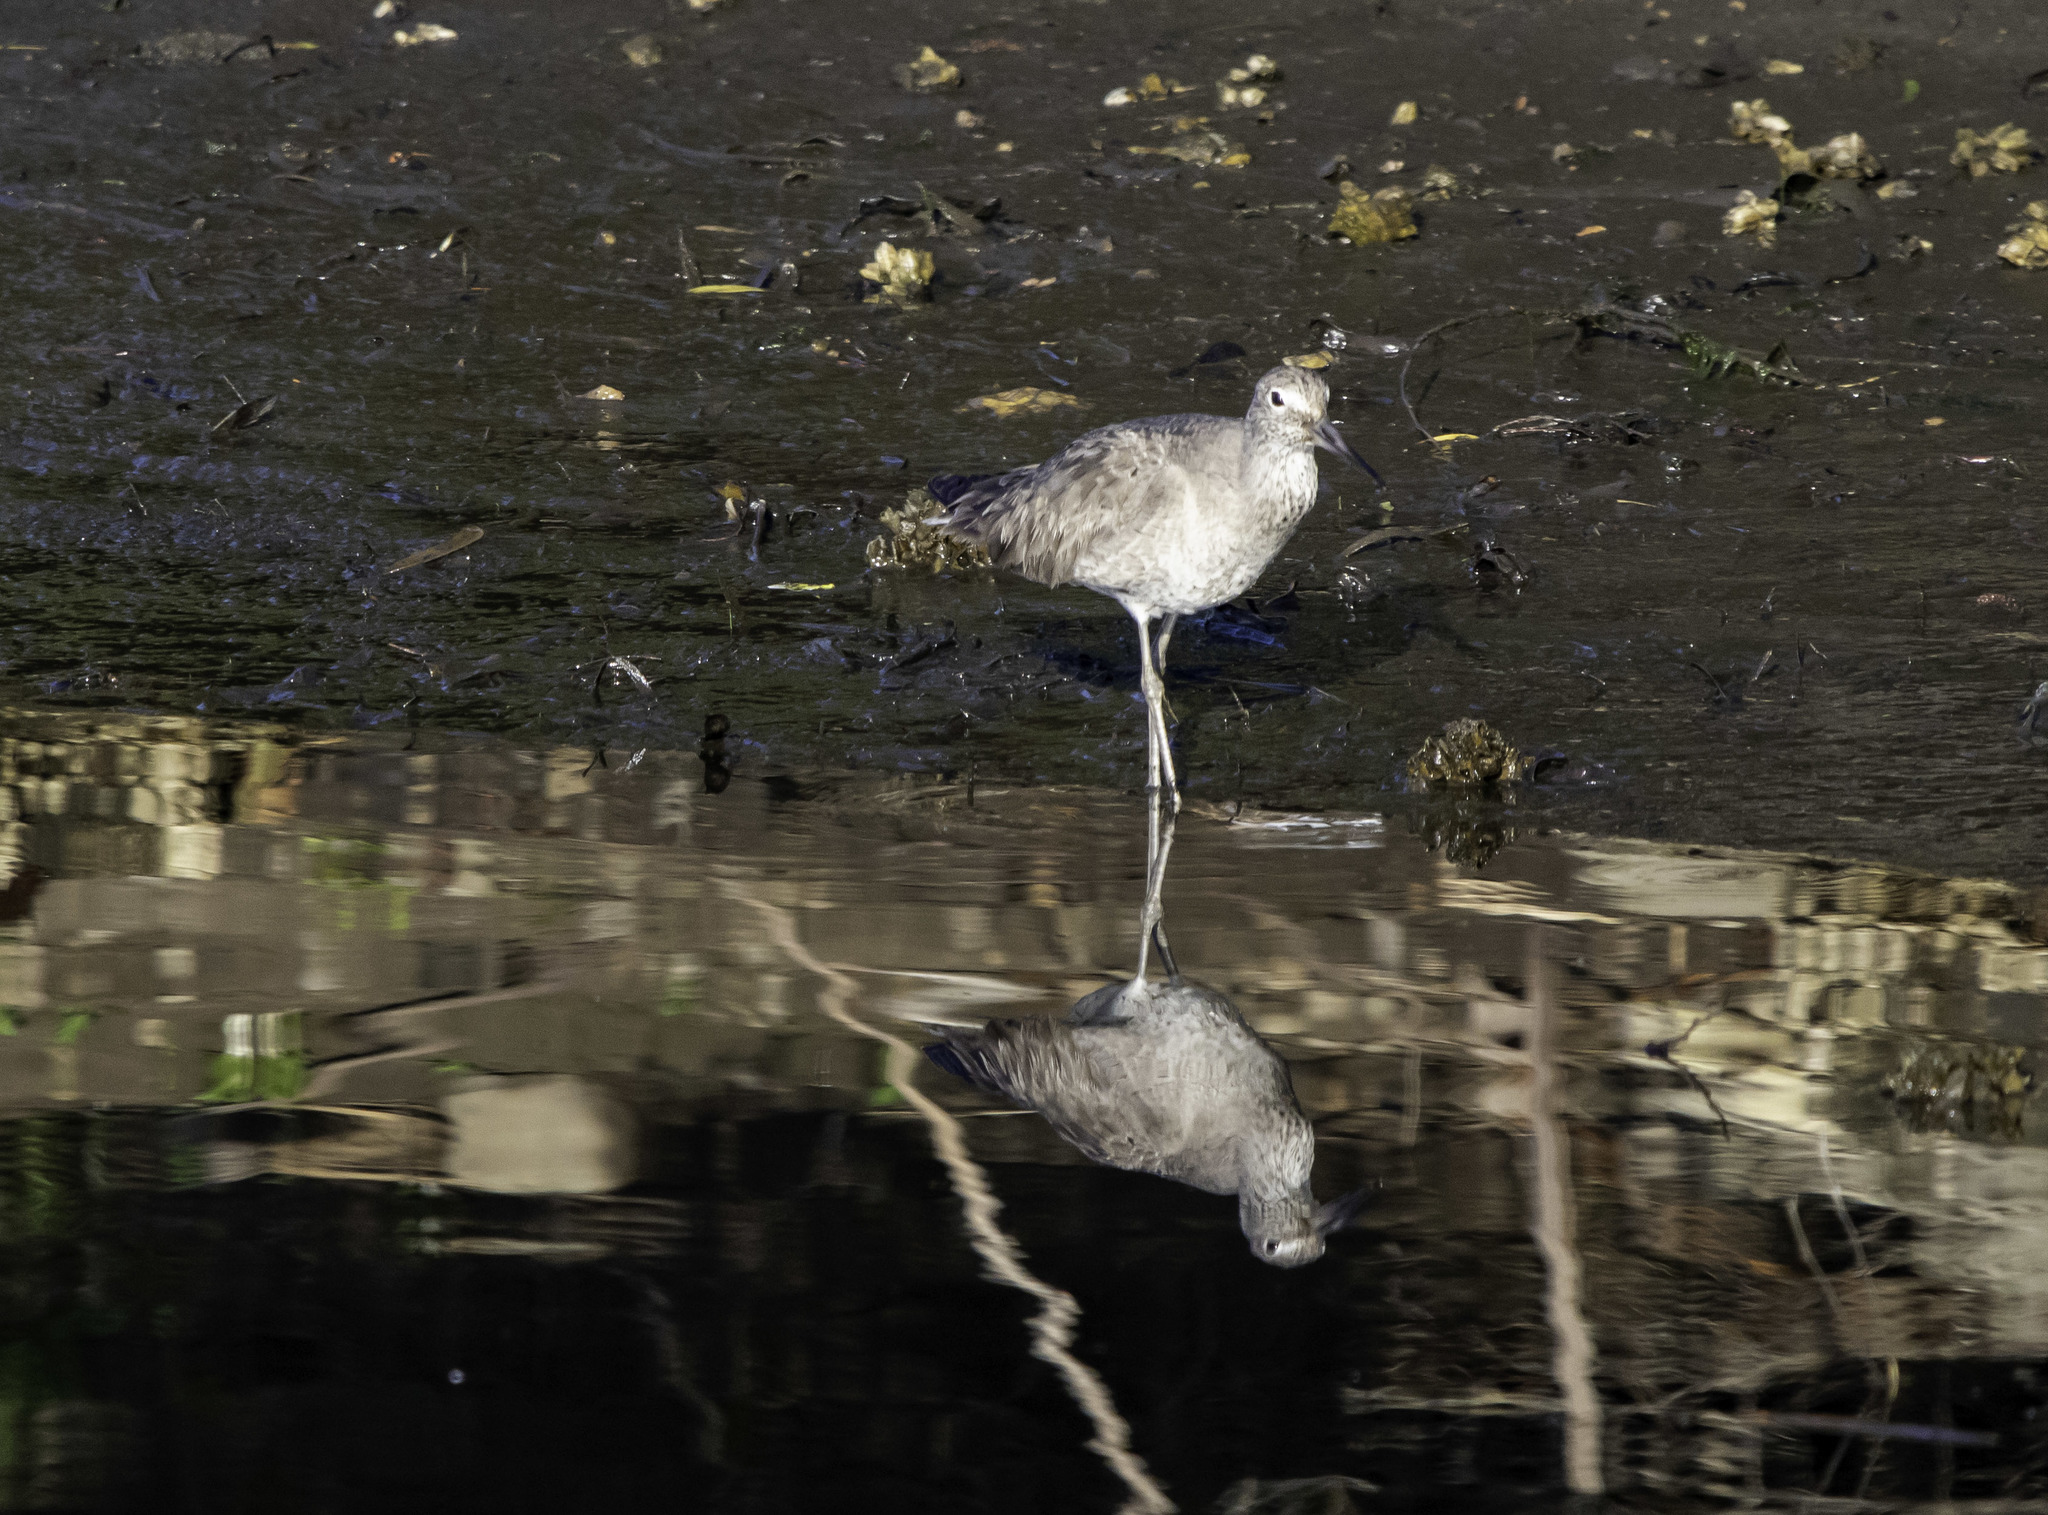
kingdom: Animalia
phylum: Chordata
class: Aves
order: Charadriiformes
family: Scolopacidae
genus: Tringa
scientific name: Tringa semipalmata
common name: Willet
